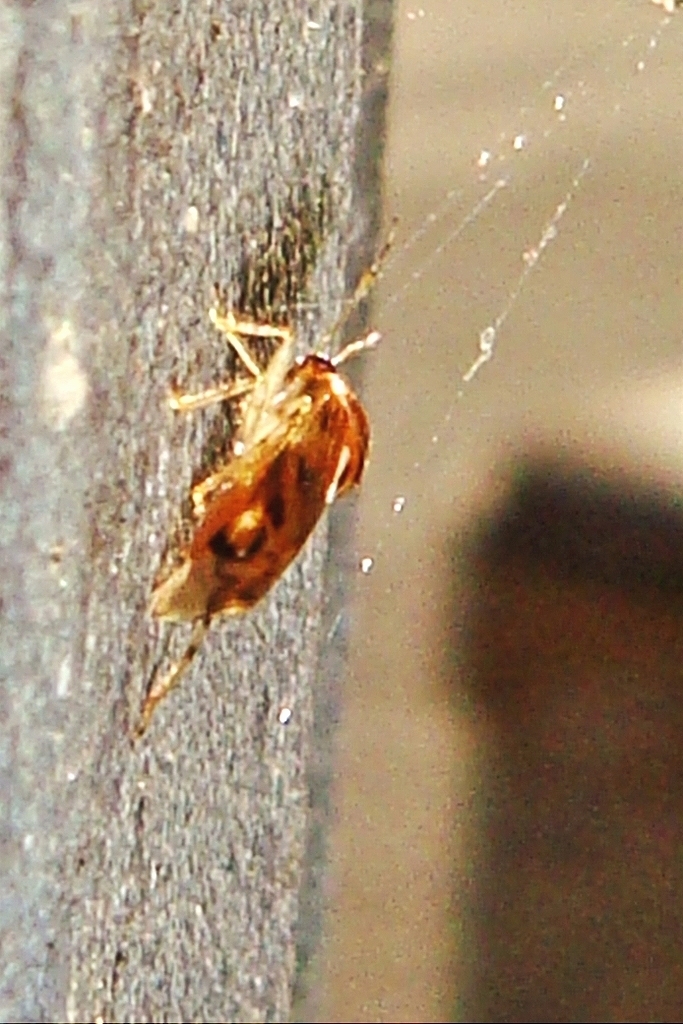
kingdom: Animalia
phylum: Arthropoda
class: Insecta
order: Hemiptera
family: Miridae
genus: Deraeocoris
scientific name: Deraeocoris lutescens
